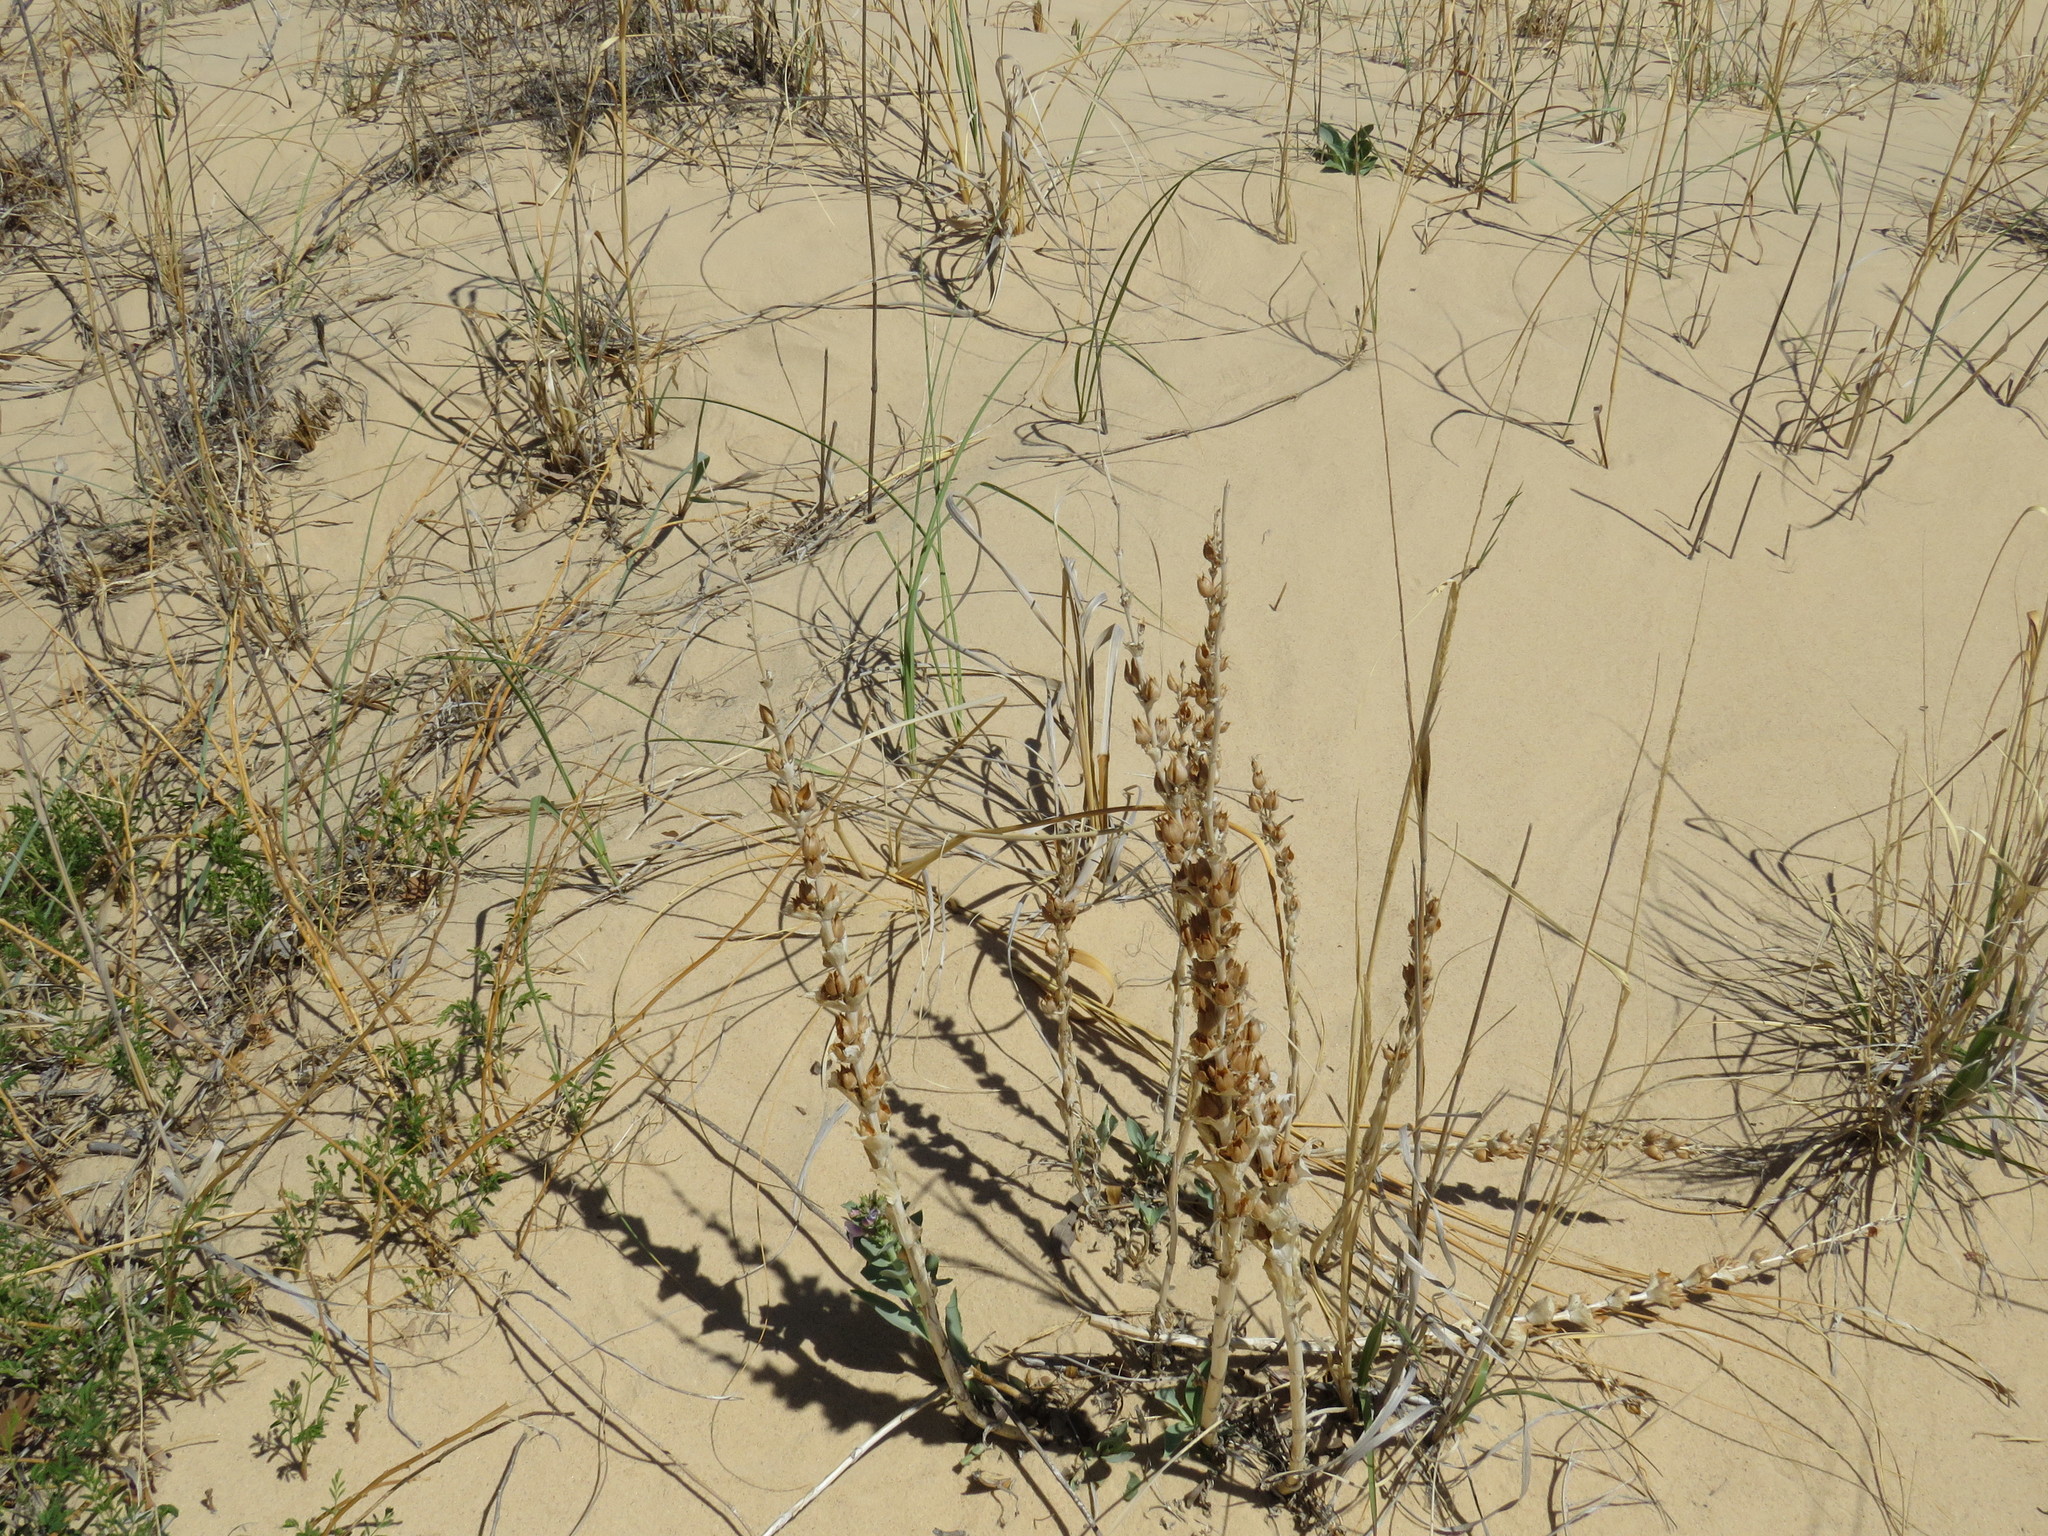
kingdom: Plantae
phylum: Tracheophyta
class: Magnoliopsida
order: Lamiales
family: Plantaginaceae
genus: Penstemon
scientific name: Penstemon buckleyi
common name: Buckley's penstemon
